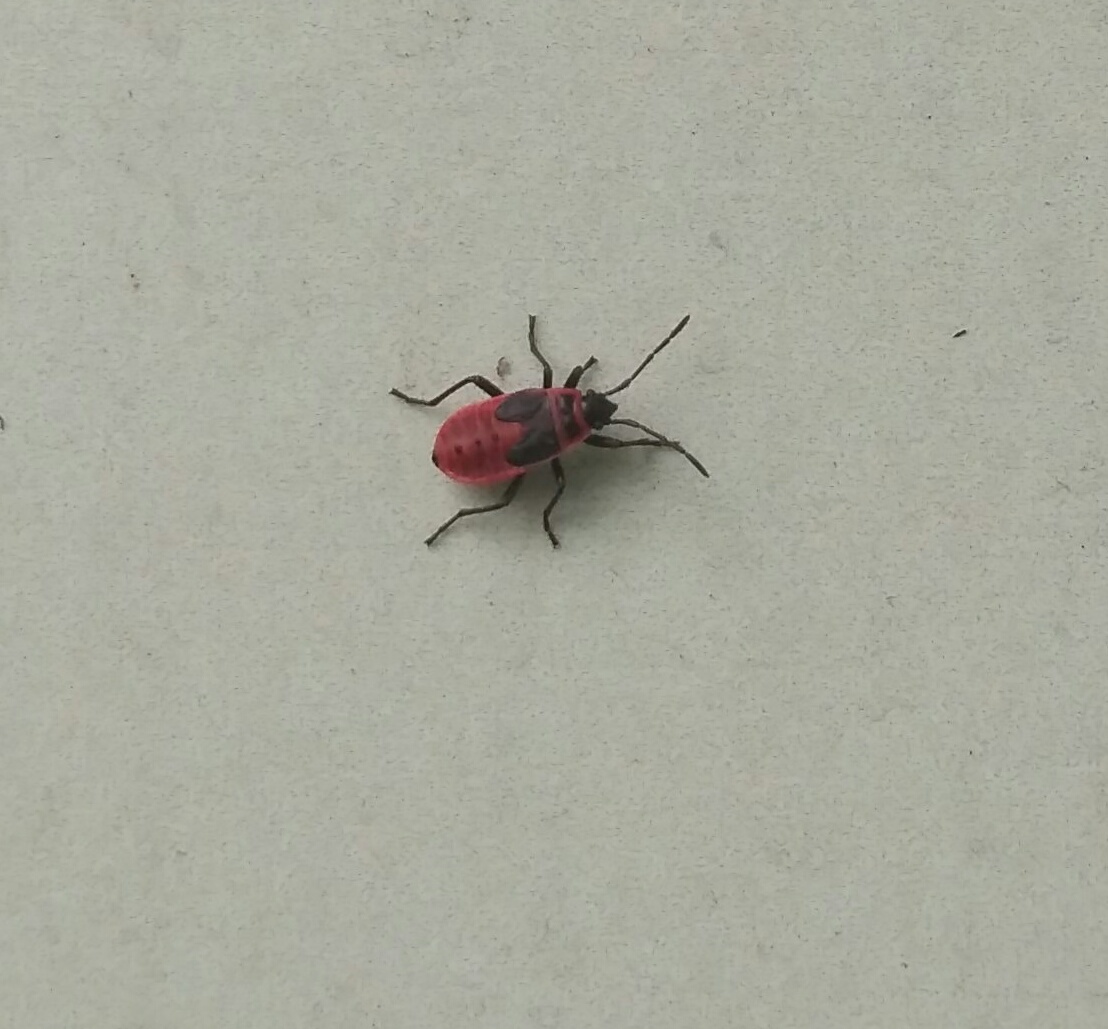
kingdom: Animalia
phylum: Arthropoda
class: Insecta
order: Hemiptera
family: Pyrrhocoridae
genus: Pyrrhocoris
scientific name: Pyrrhocoris apterus
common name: Firebug
